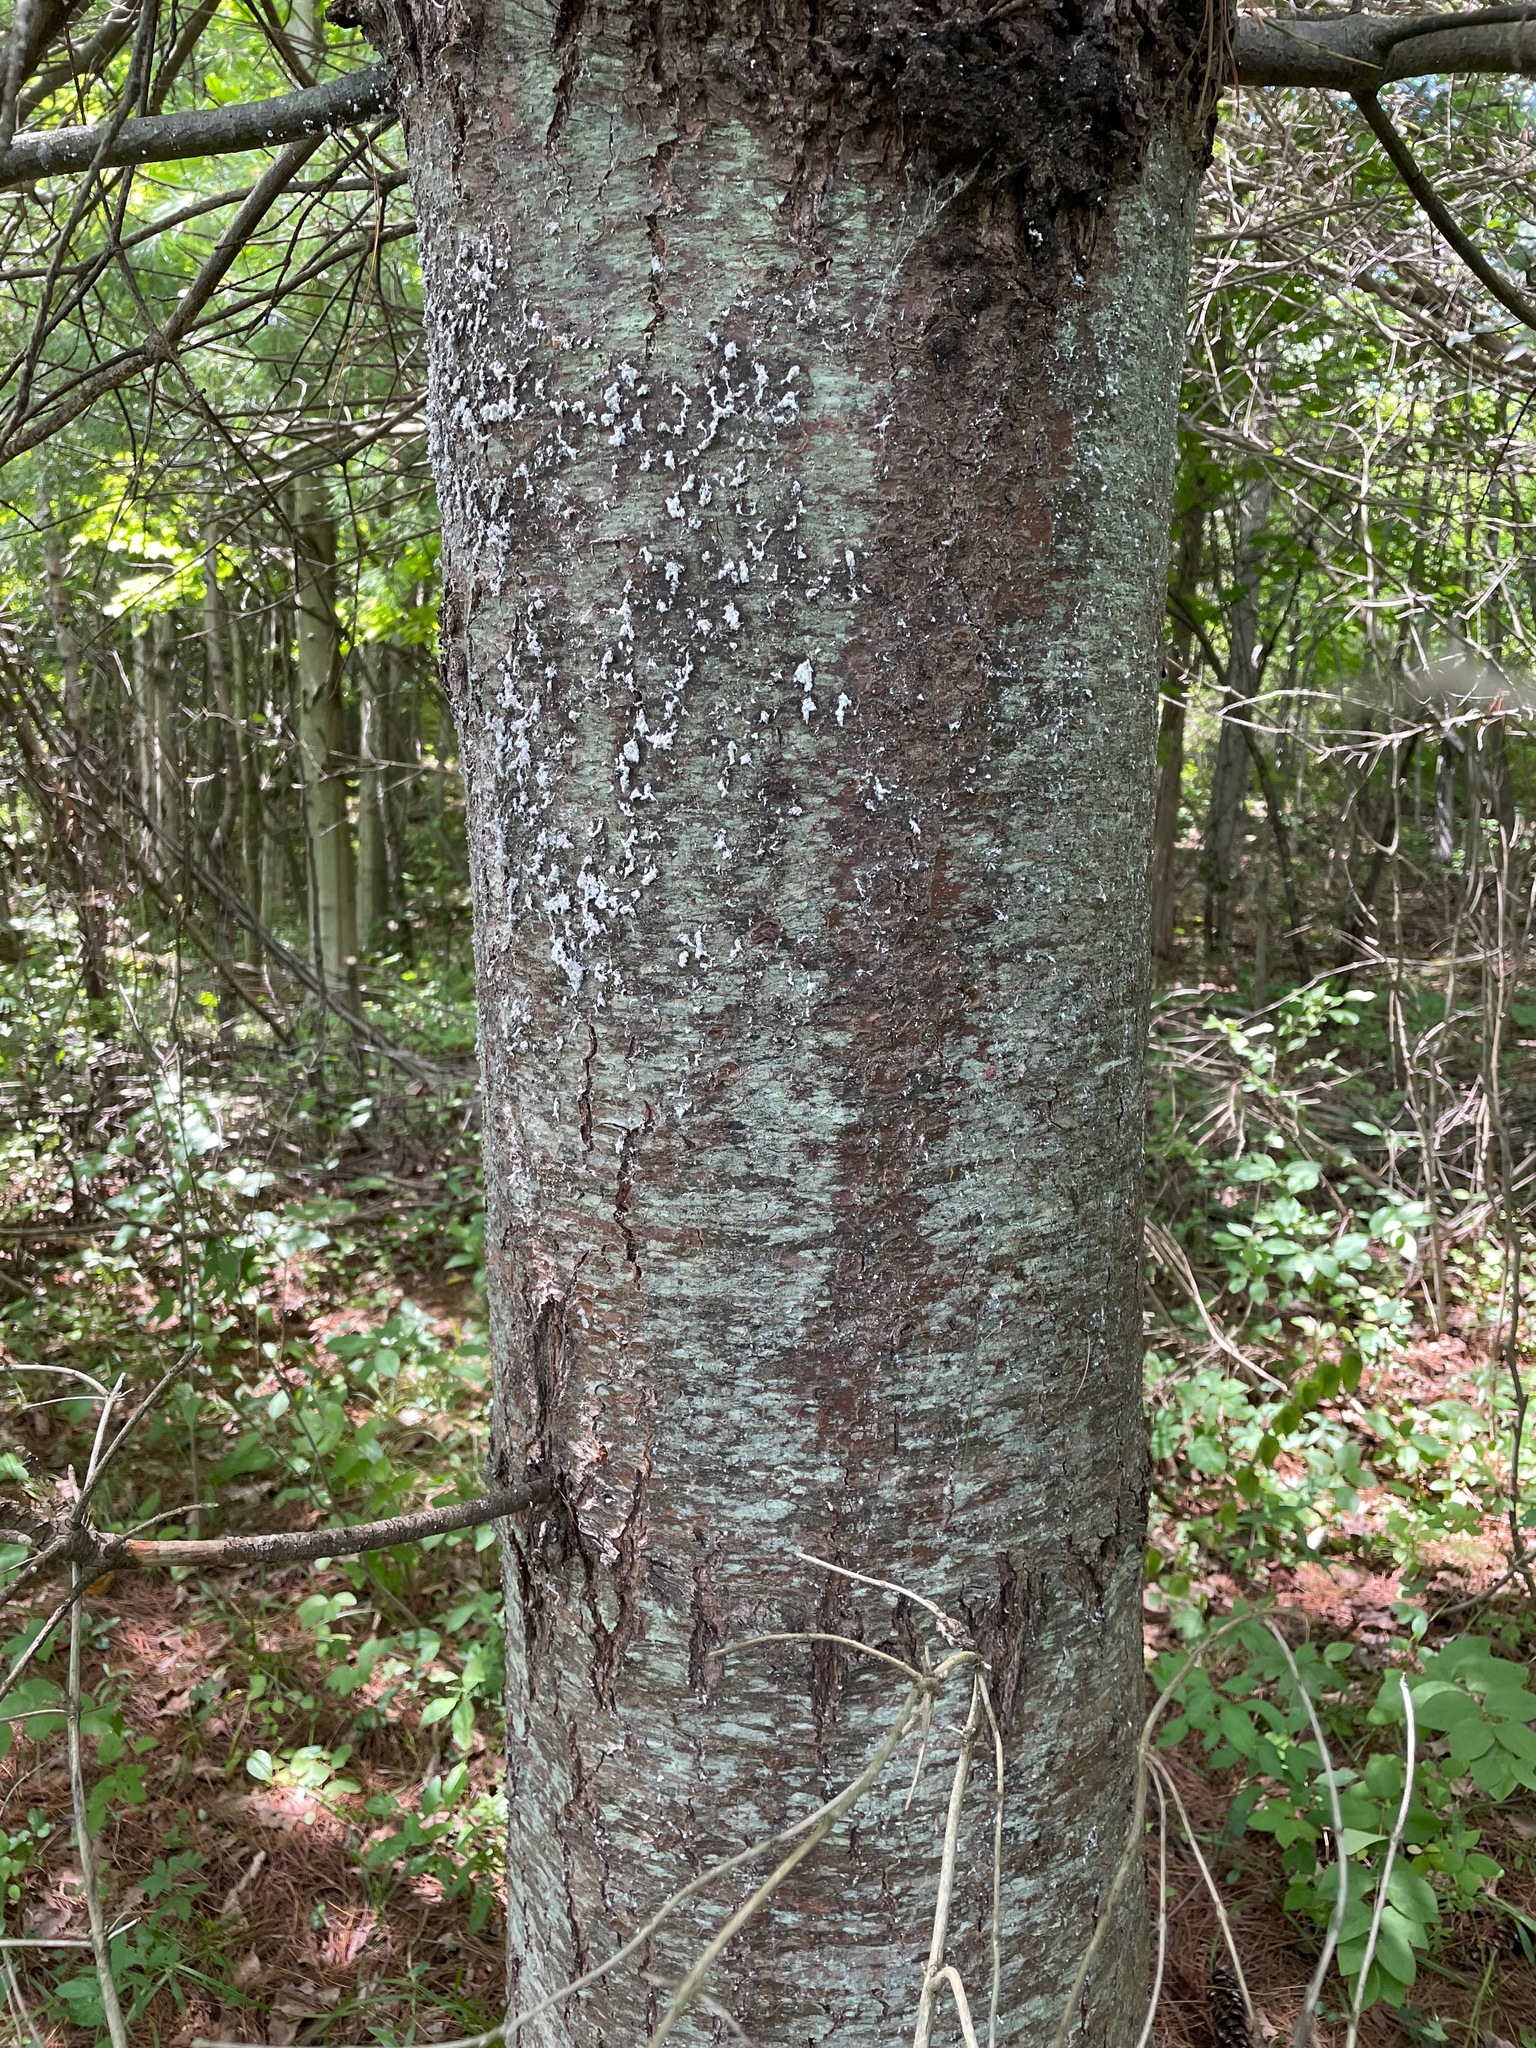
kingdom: Plantae
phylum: Tracheophyta
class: Pinopsida
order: Pinales
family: Pinaceae
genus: Pinus
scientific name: Pinus strobus
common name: Weymouth pine
